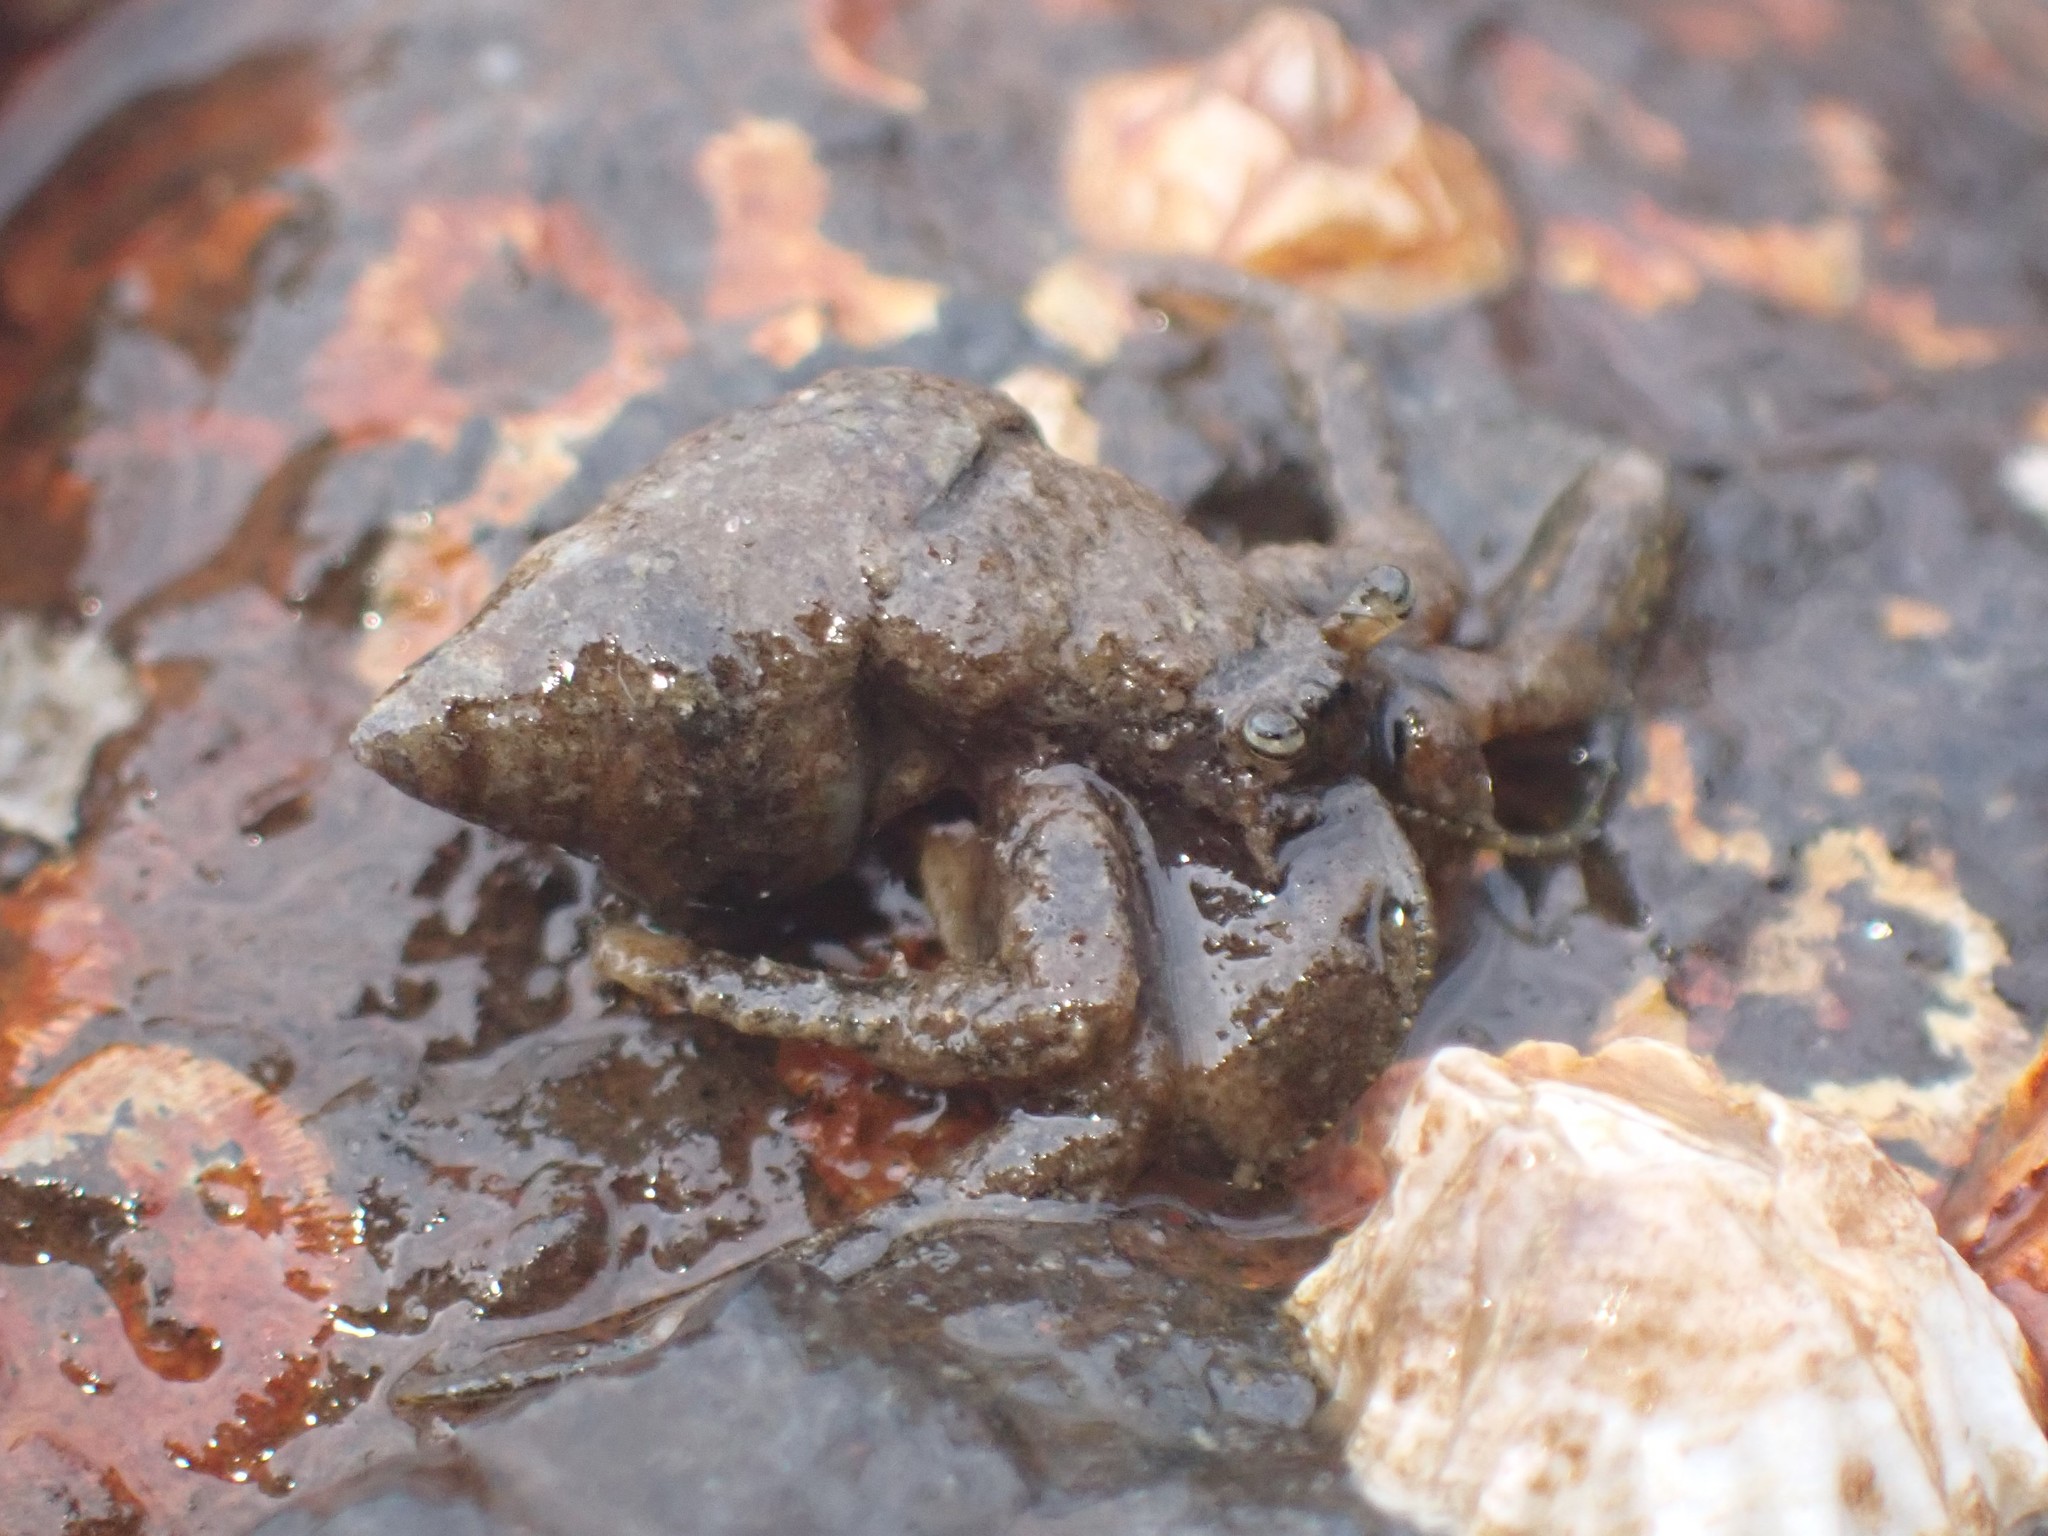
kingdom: Animalia
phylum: Arthropoda
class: Malacostraca
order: Decapoda
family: Paguridae
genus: Pagurus
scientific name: Pagurus hirsutiusculus
